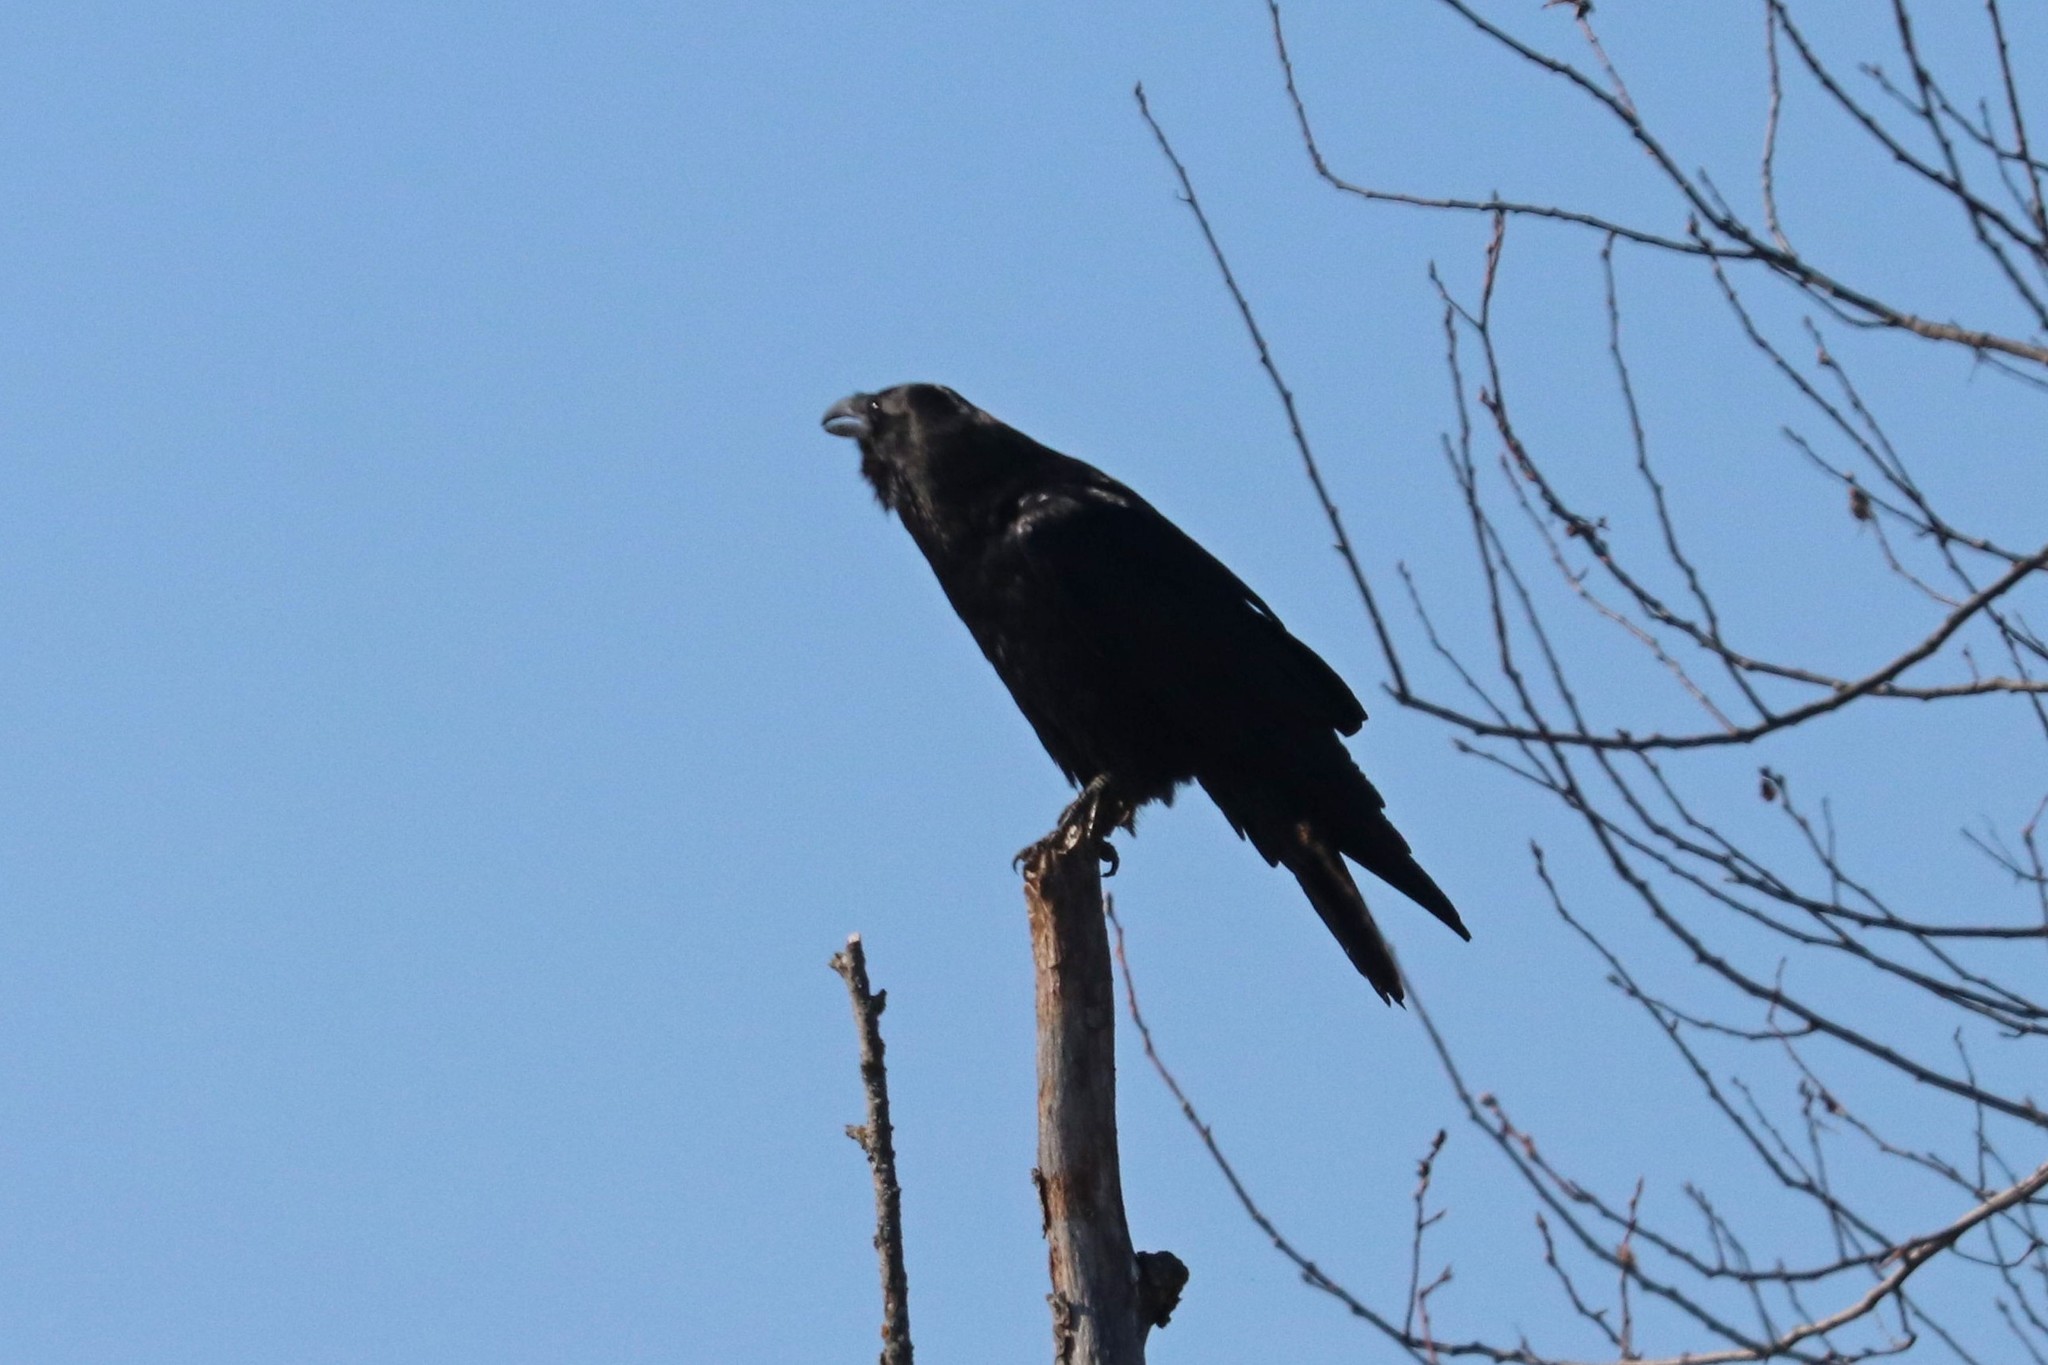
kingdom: Animalia
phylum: Chordata
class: Aves
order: Passeriformes
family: Corvidae
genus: Corvus
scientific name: Corvus corax
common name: Common raven
